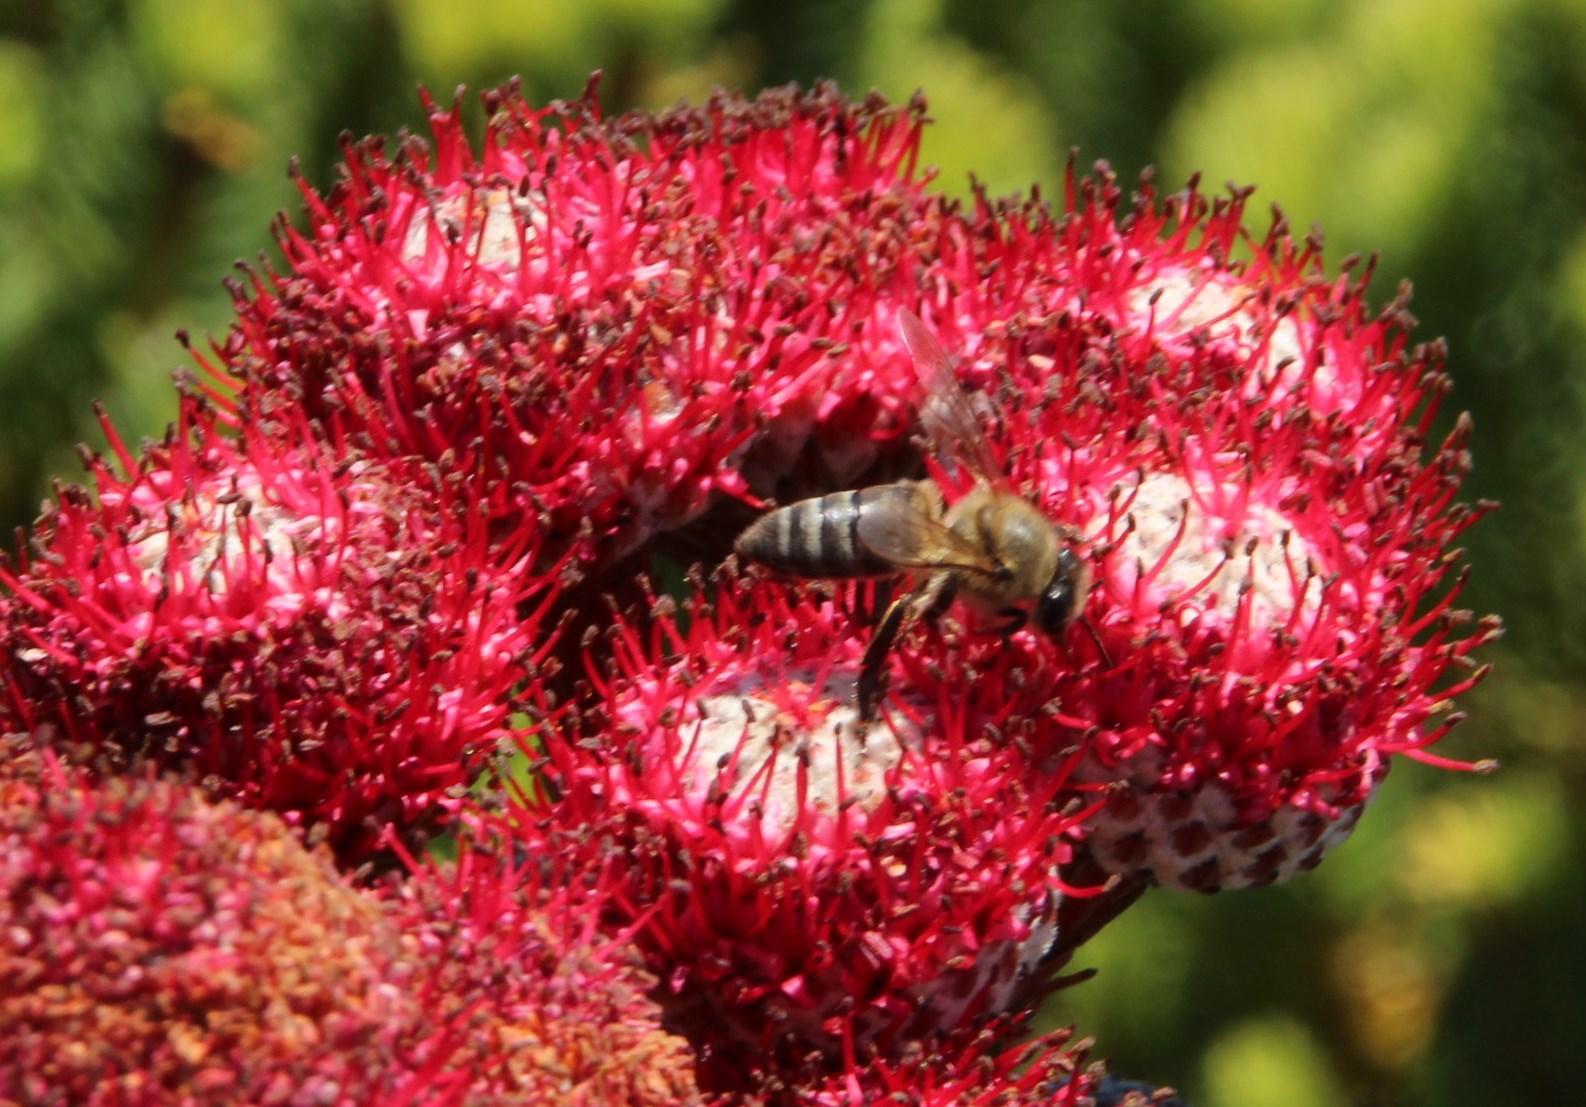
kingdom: Animalia
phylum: Arthropoda
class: Insecta
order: Hymenoptera
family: Apidae
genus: Apis
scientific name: Apis mellifera
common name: Honey bee
